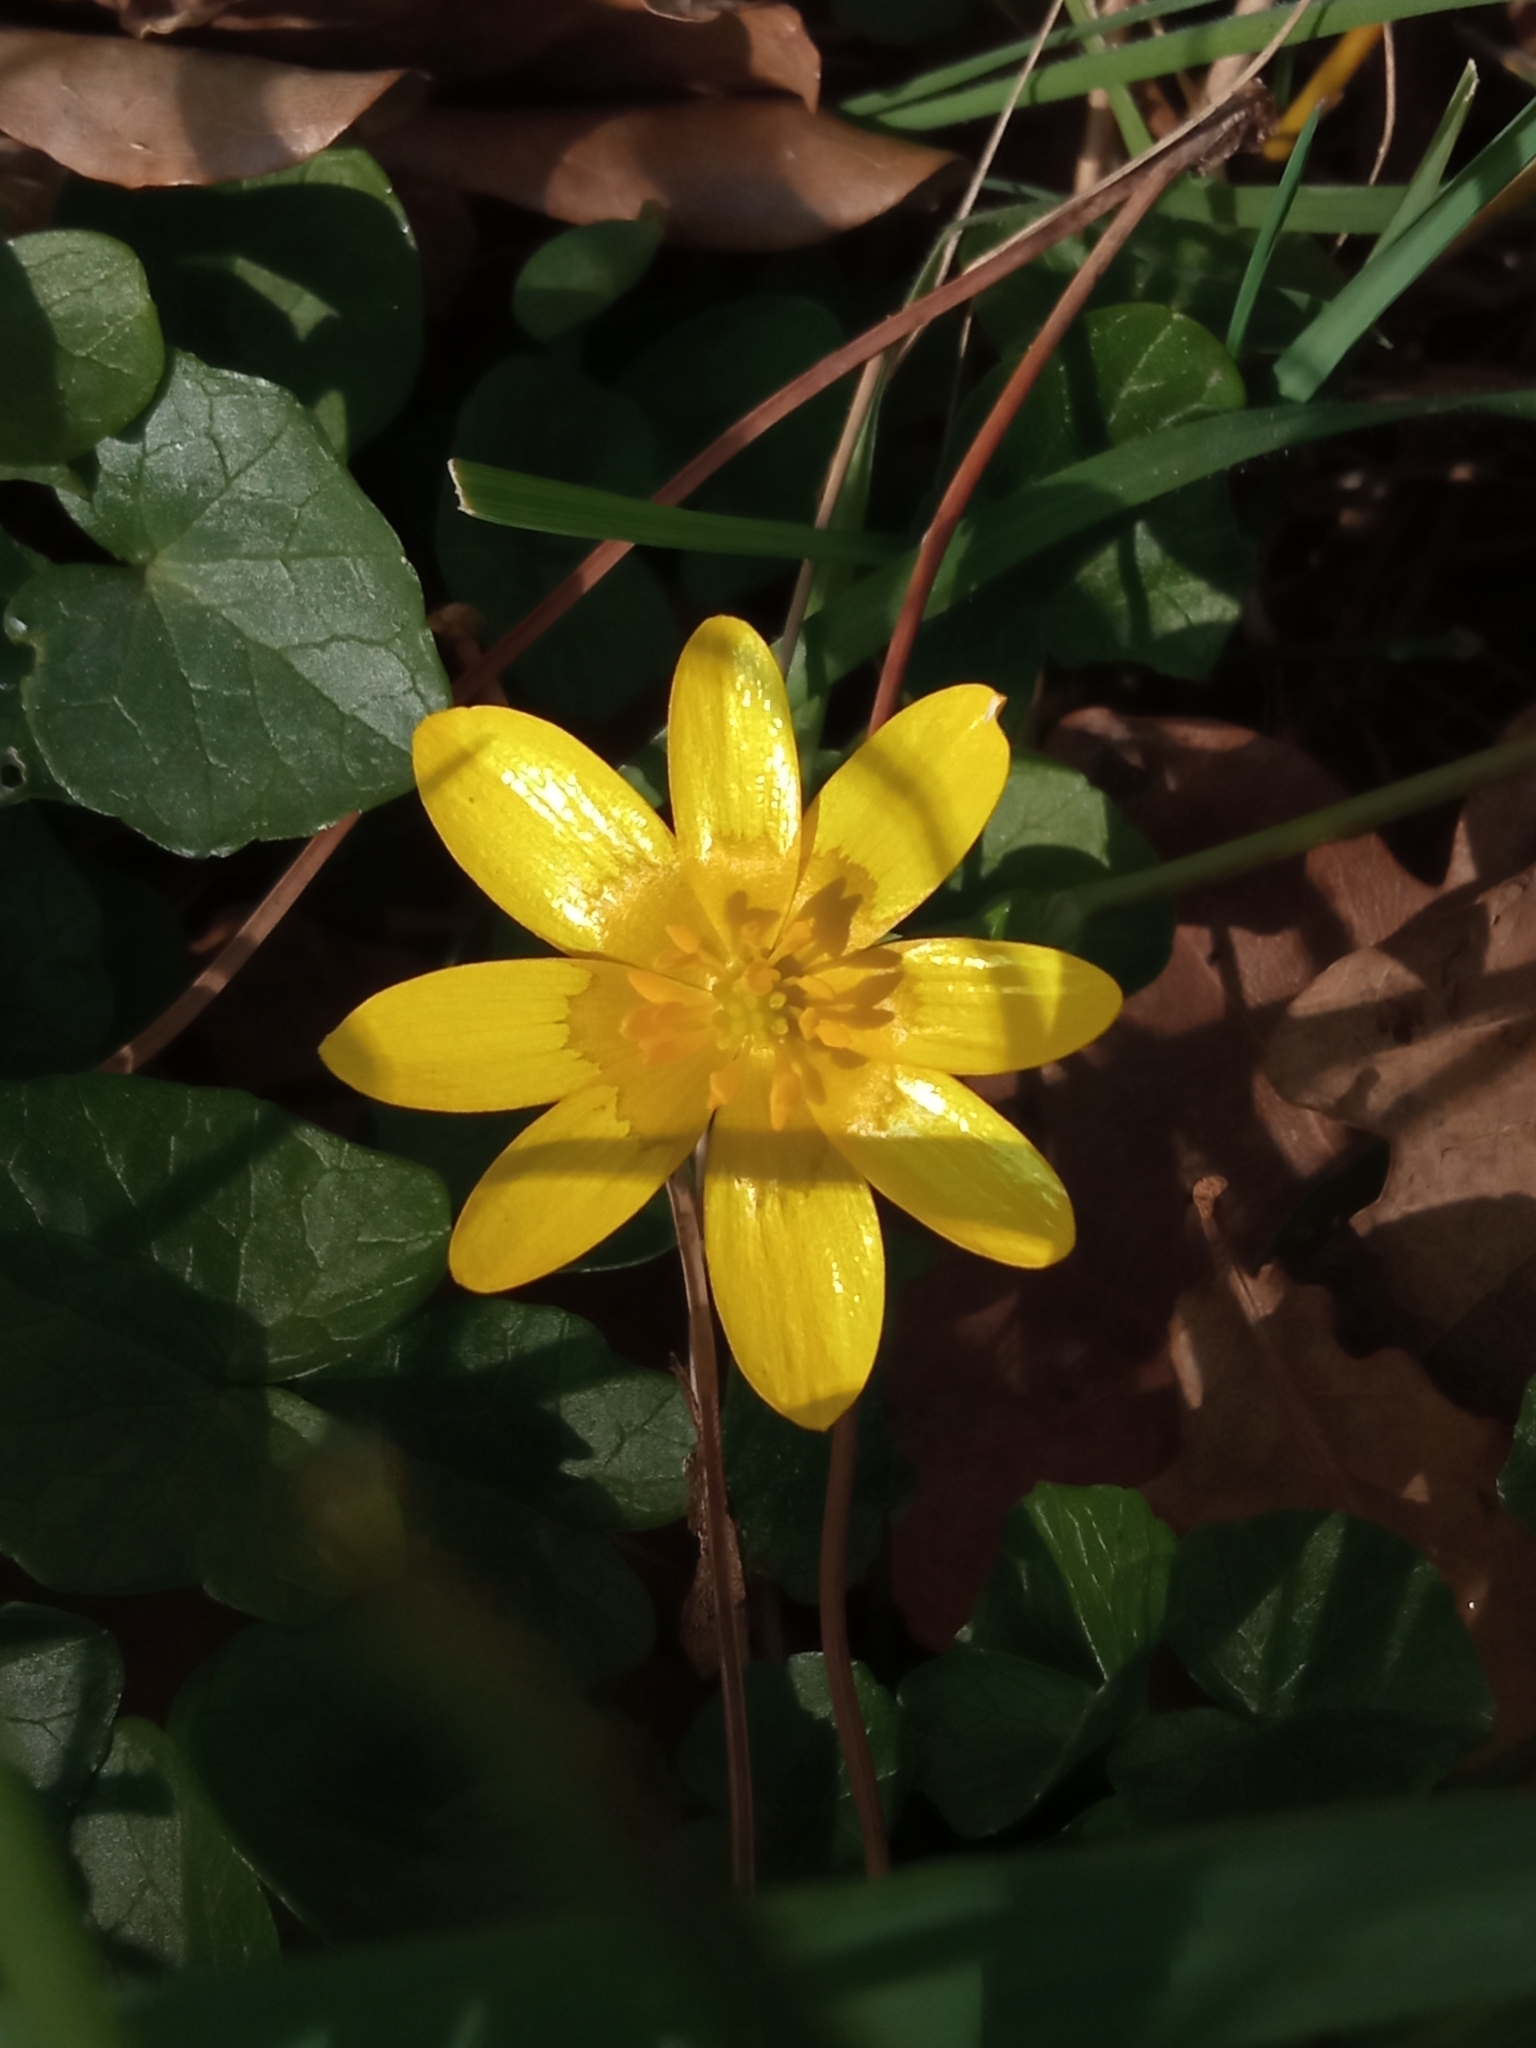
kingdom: Plantae
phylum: Tracheophyta
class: Magnoliopsida
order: Ranunculales
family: Ranunculaceae
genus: Ficaria
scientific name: Ficaria verna
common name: Lesser celandine
